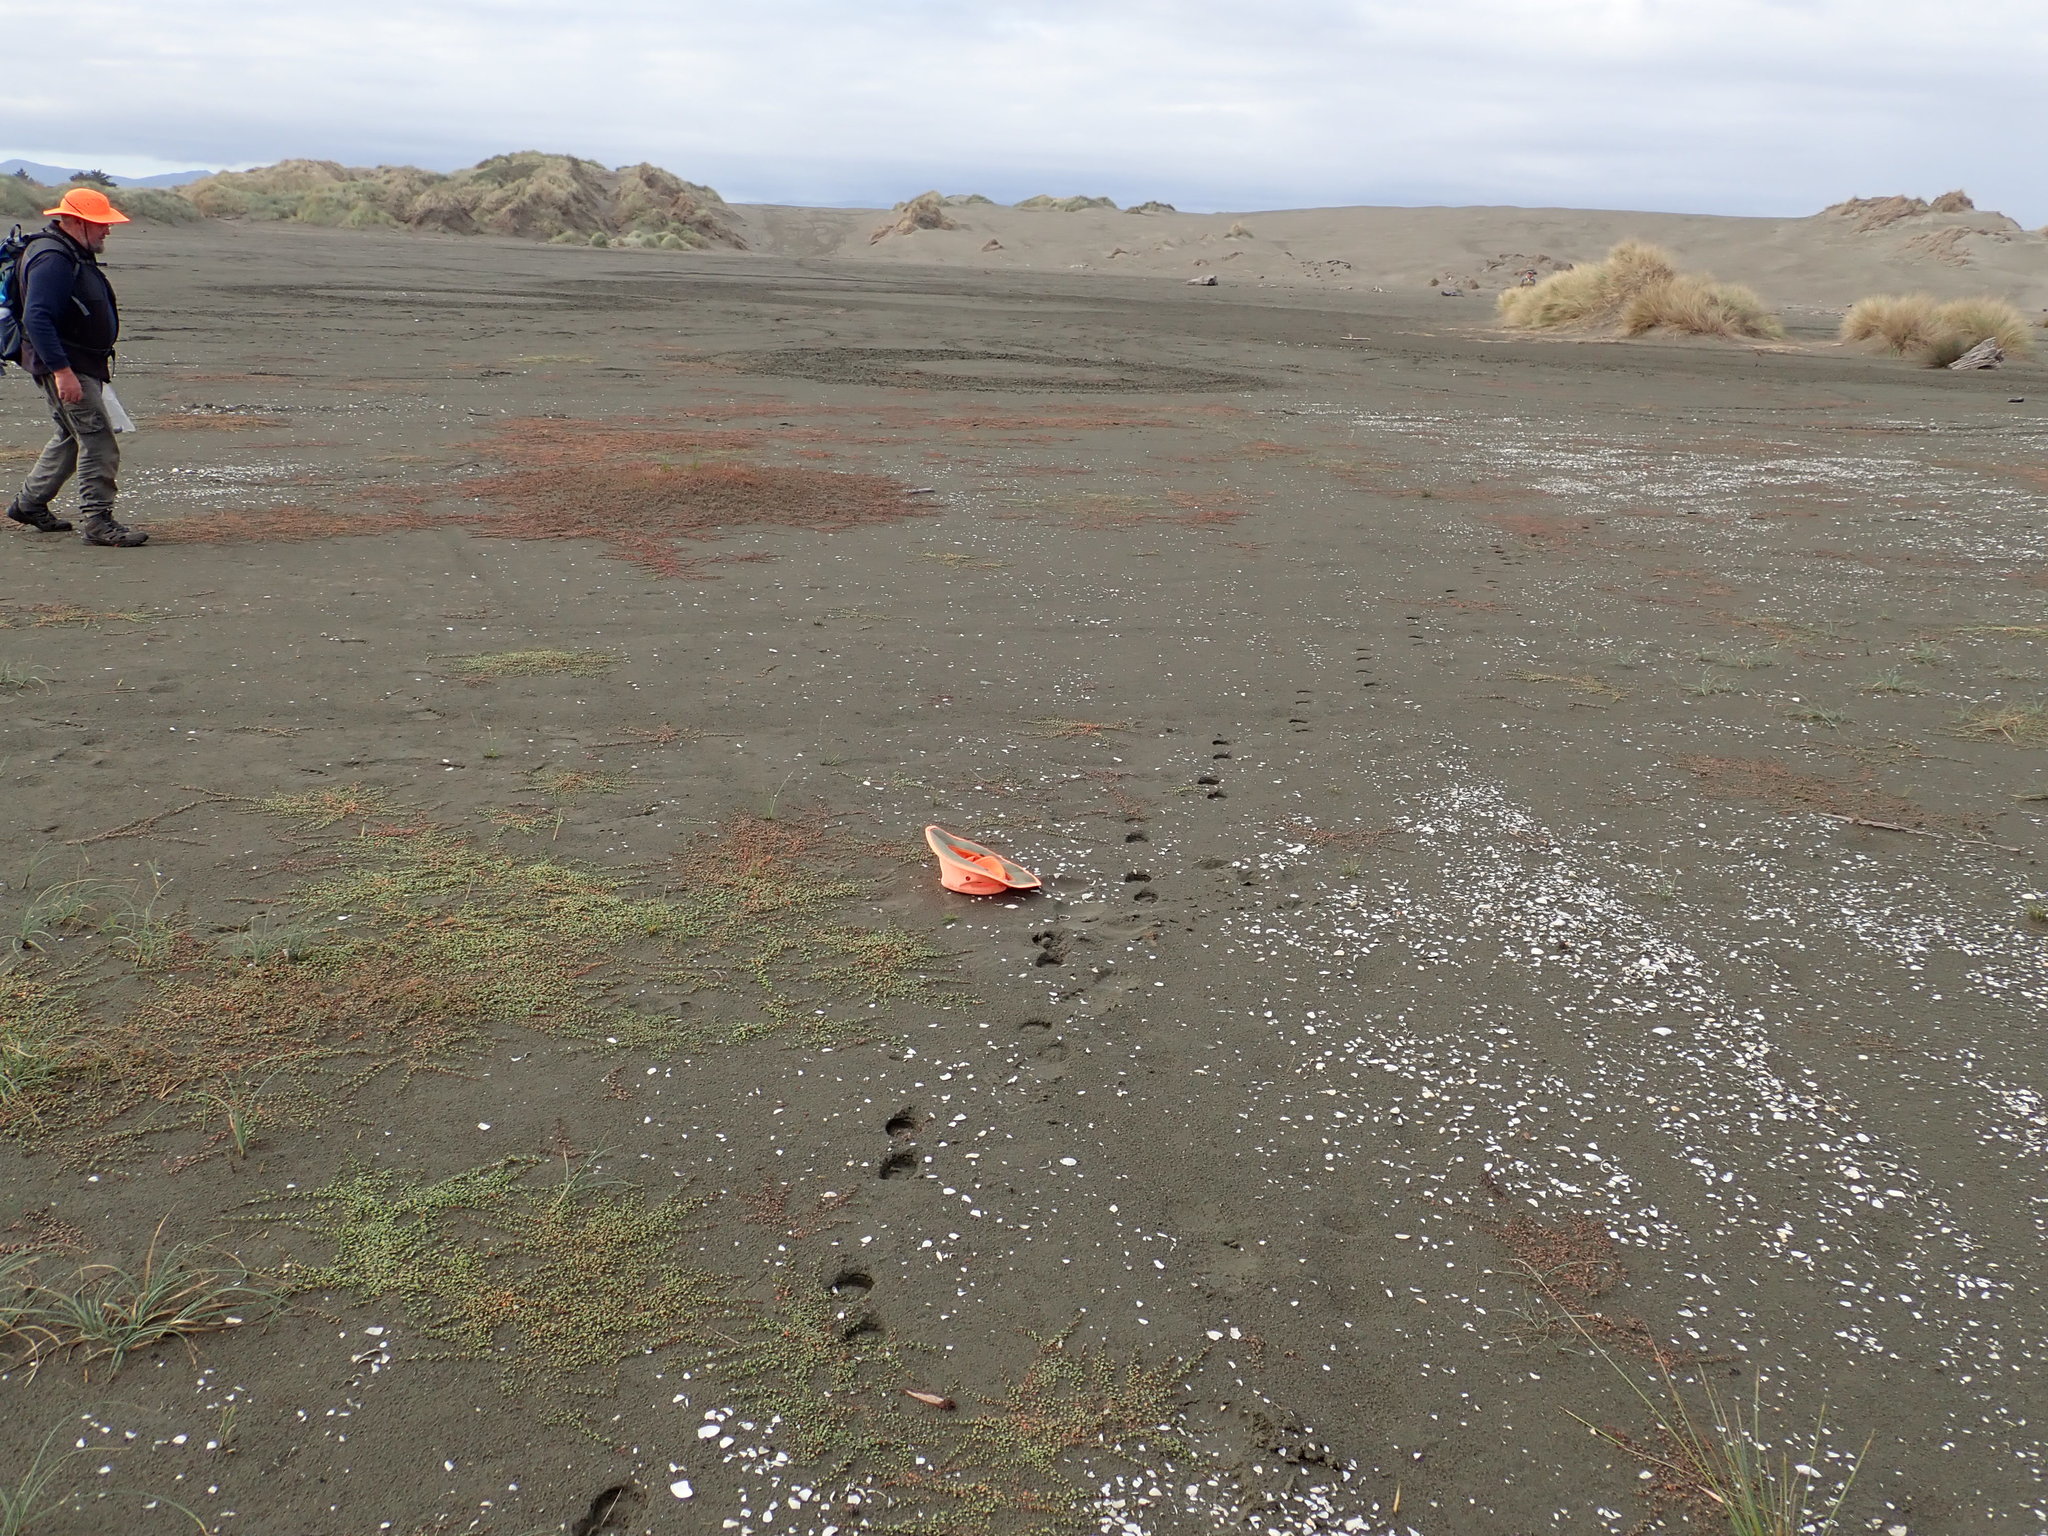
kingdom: Plantae
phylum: Tracheophyta
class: Liliopsida
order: Poales
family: Cyperaceae
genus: Isolepis
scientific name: Isolepis cernua
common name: Slender club-rush
